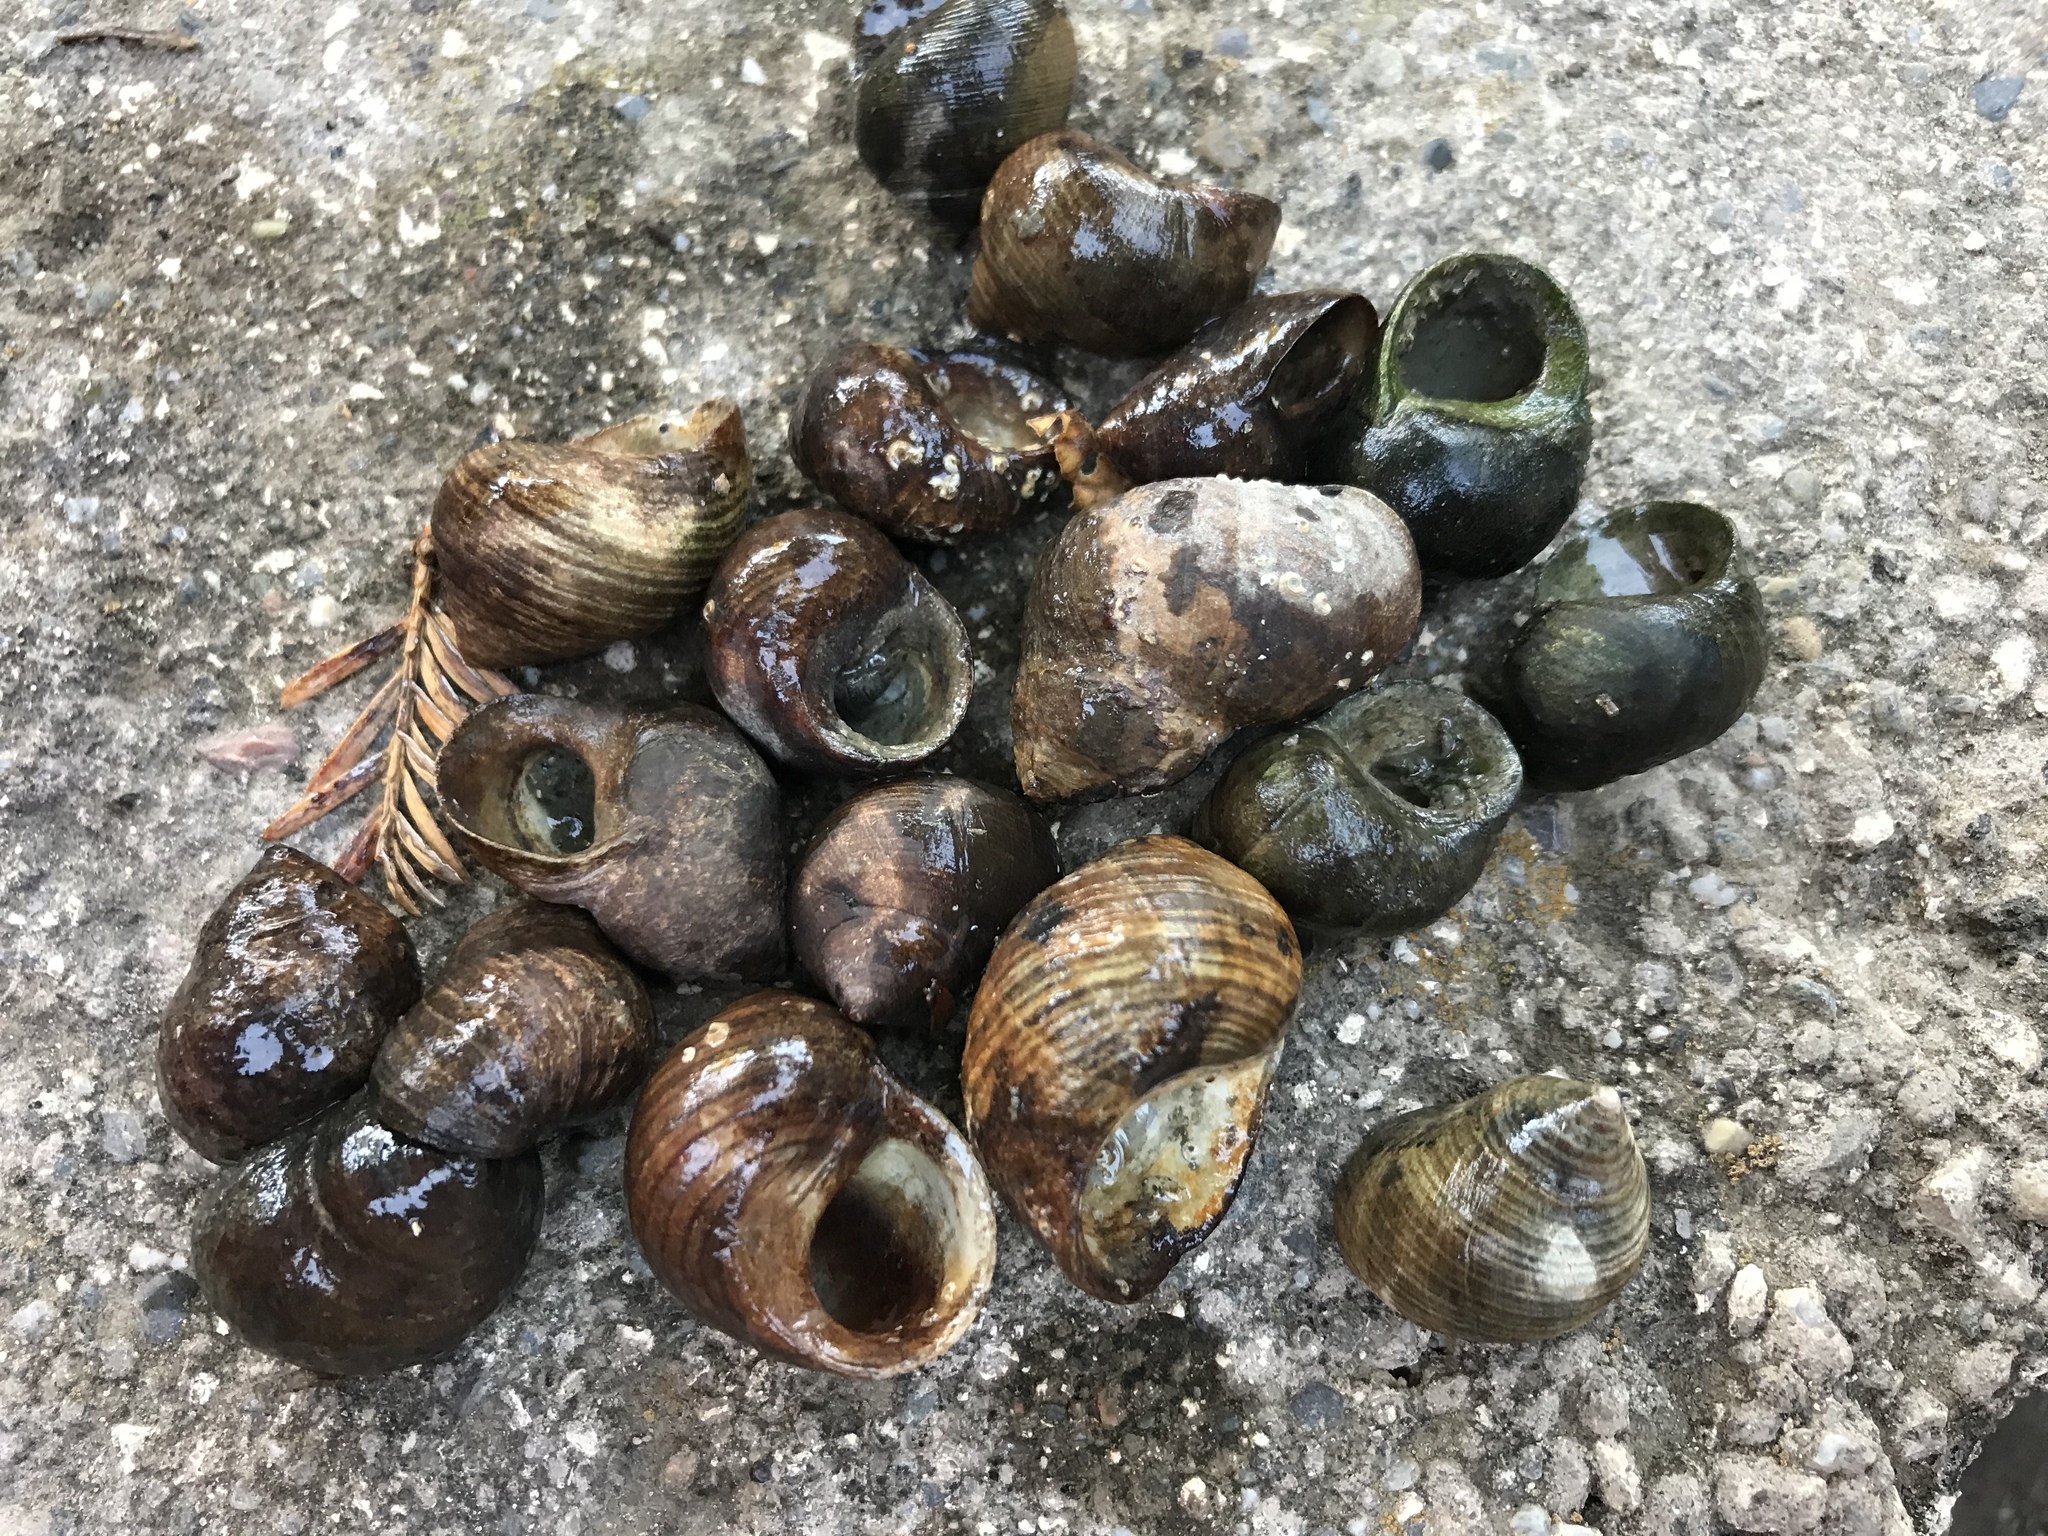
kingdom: Animalia
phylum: Mollusca
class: Gastropoda
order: Littorinimorpha
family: Littorinidae
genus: Littorina
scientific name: Littorina littorea
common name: Common periwinkle
